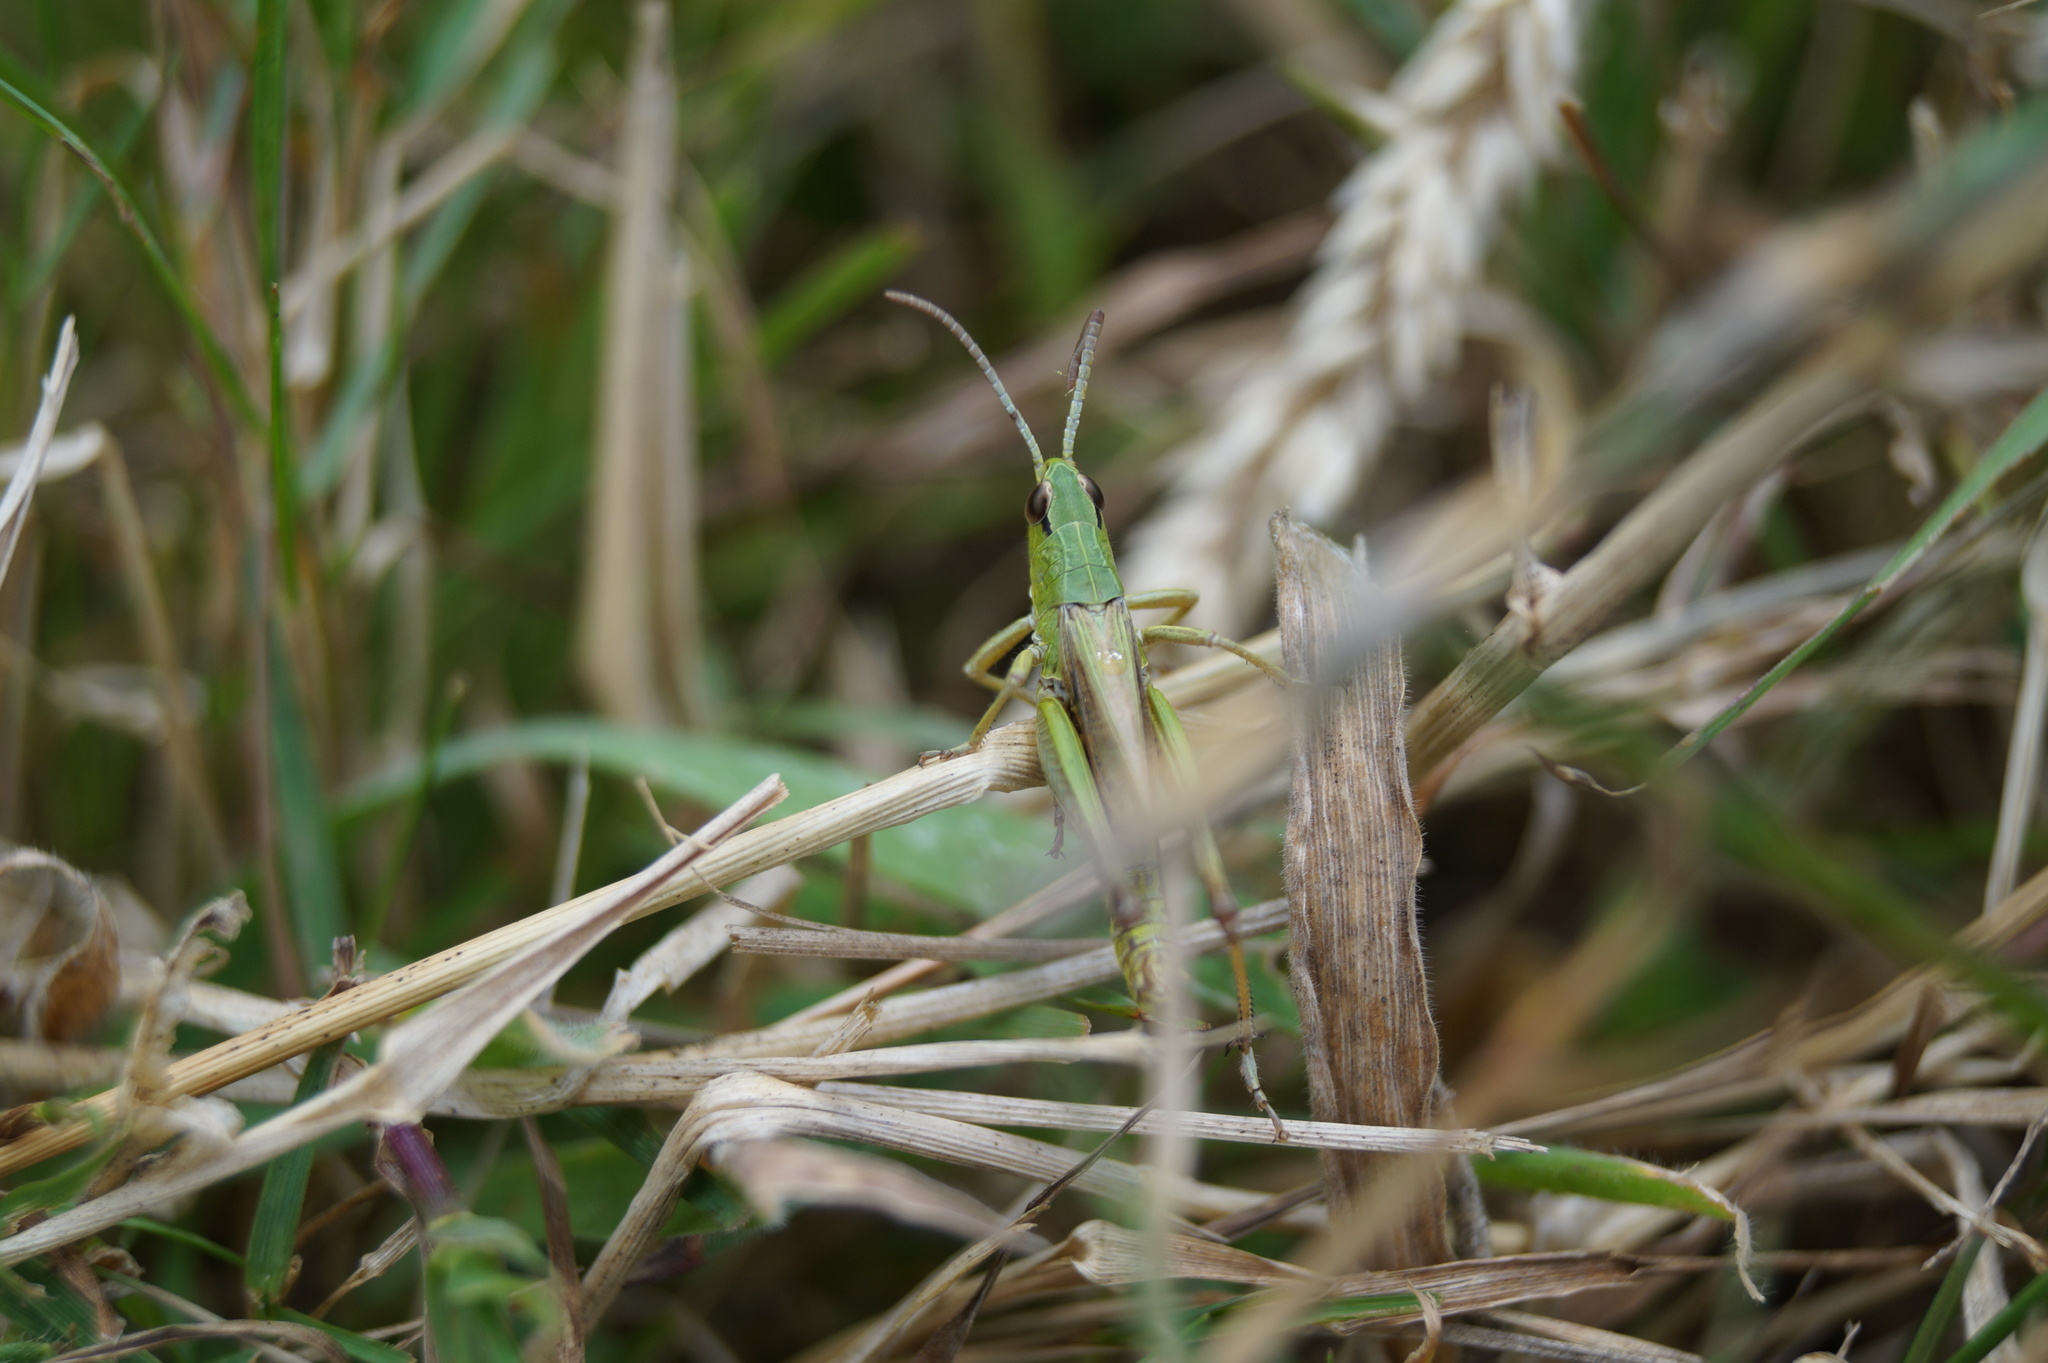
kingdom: Animalia
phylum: Arthropoda
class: Insecta
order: Orthoptera
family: Acrididae
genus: Pseudochorthippus
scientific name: Pseudochorthippus parallelus
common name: Meadow grasshopper
